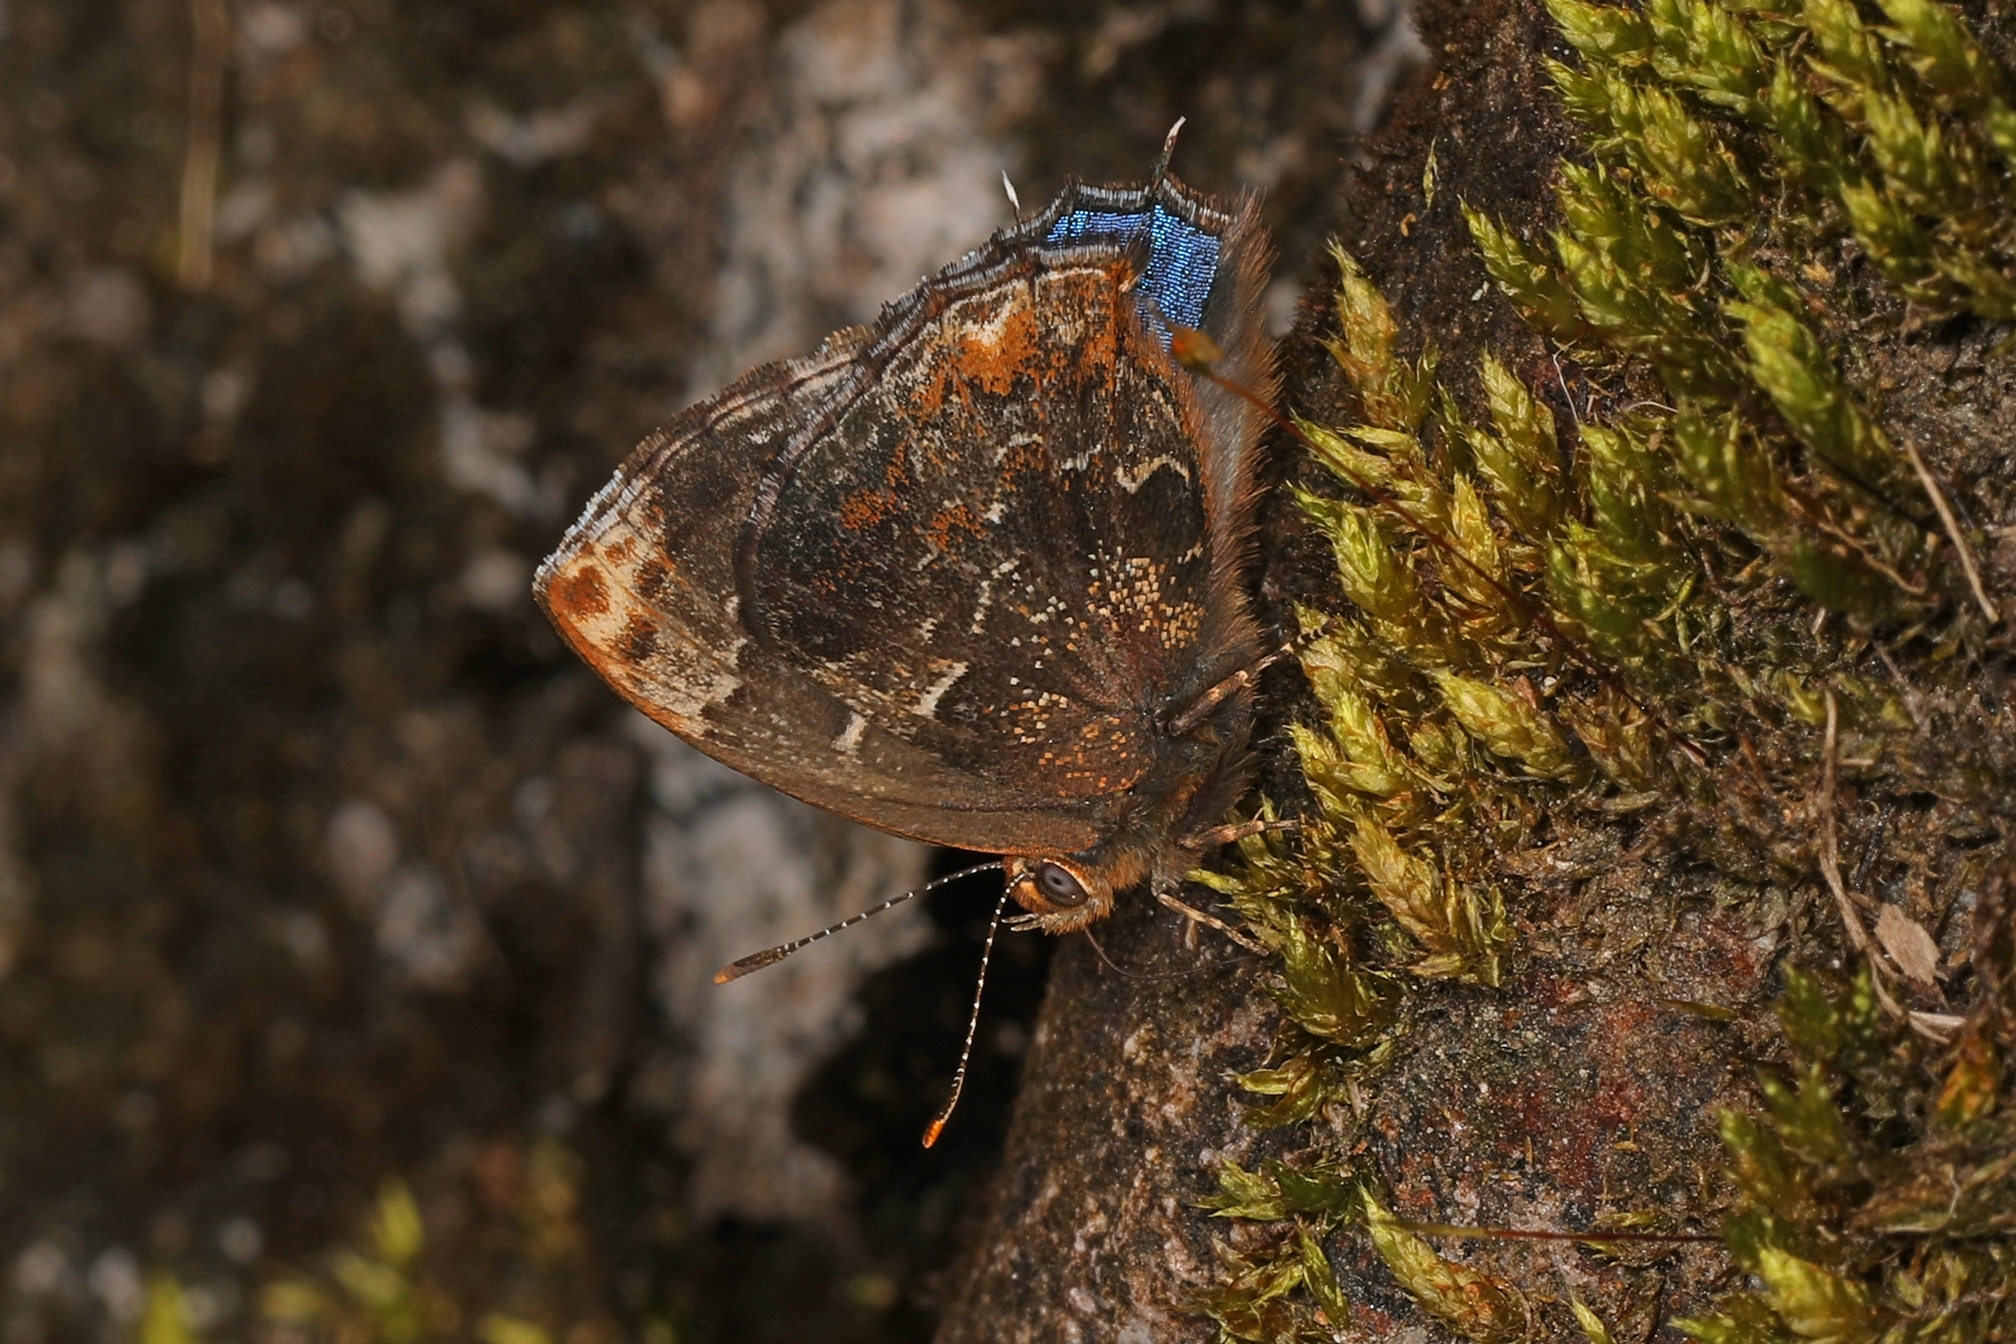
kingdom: Animalia
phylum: Arthropoda
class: Insecta
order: Lepidoptera
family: Lycaenidae
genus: Ocaria
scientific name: Ocaria ocrisia
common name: Black hairstreak
